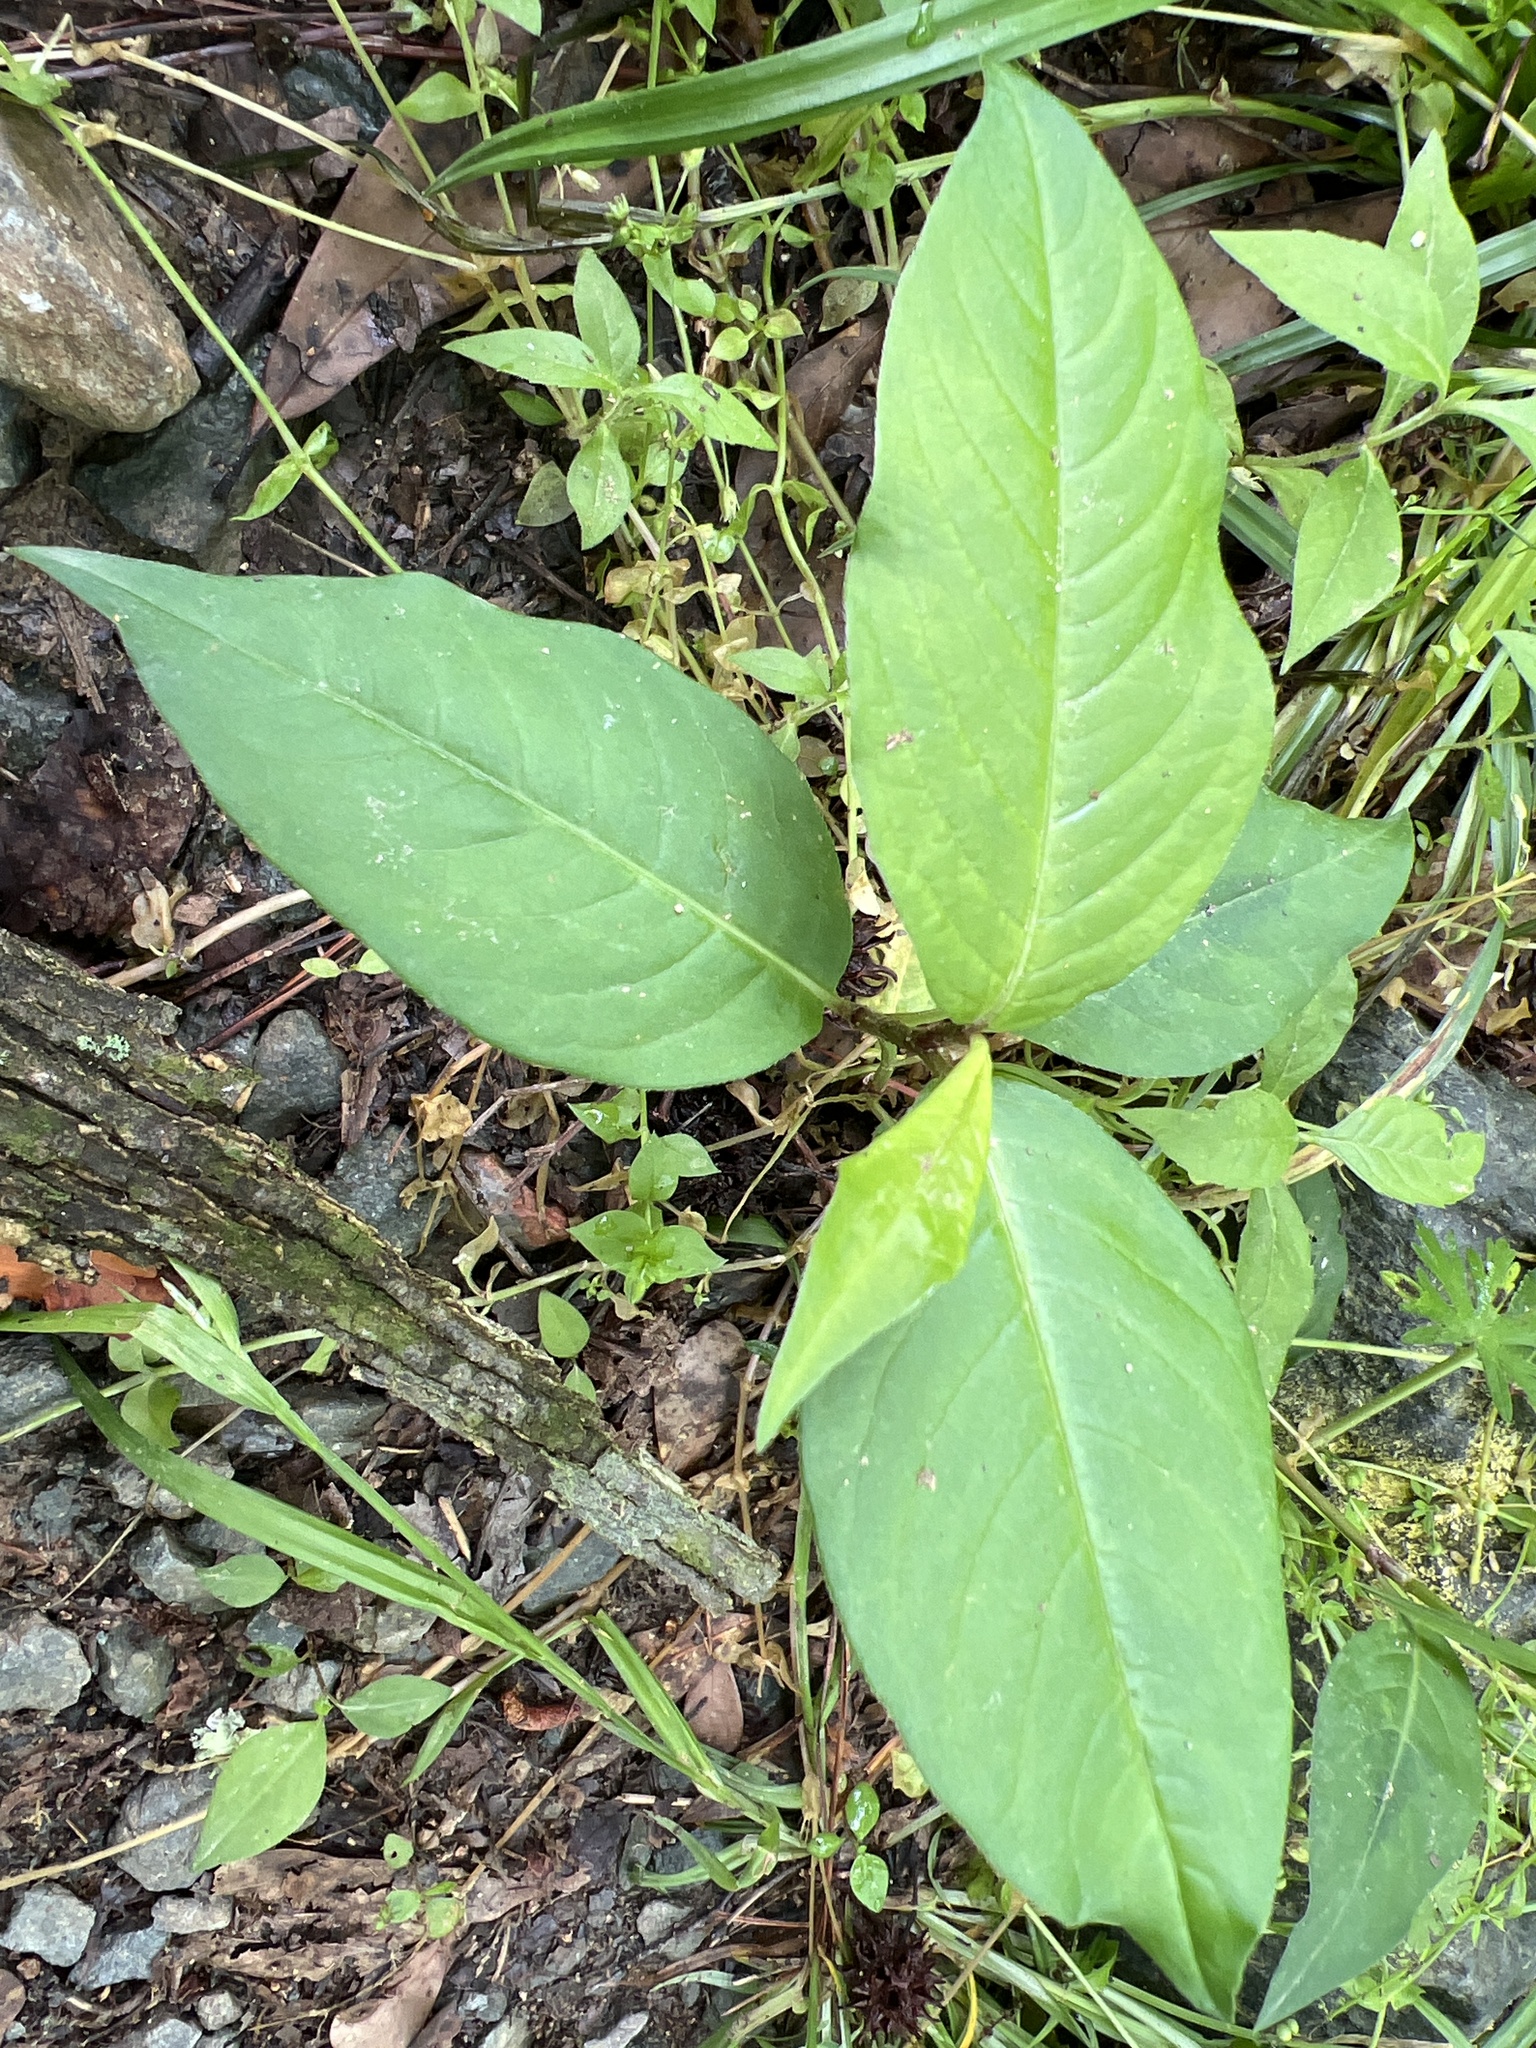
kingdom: Plantae
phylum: Tracheophyta
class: Magnoliopsida
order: Caryophyllales
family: Polygonaceae
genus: Persicaria
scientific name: Persicaria virginiana
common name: Jumpseed
